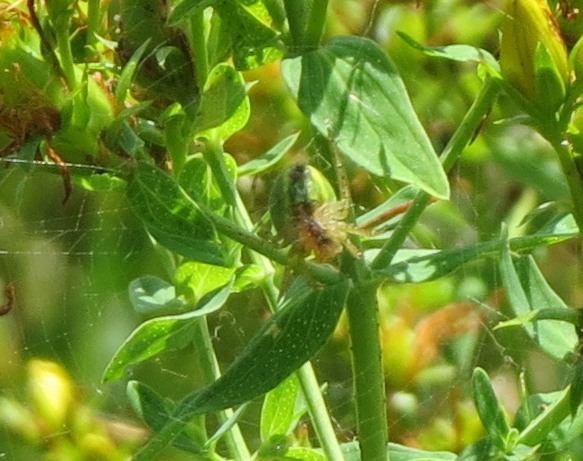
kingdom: Animalia
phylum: Arthropoda
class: Arachnida
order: Araneae
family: Araneidae
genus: Araniella
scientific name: Araniella
